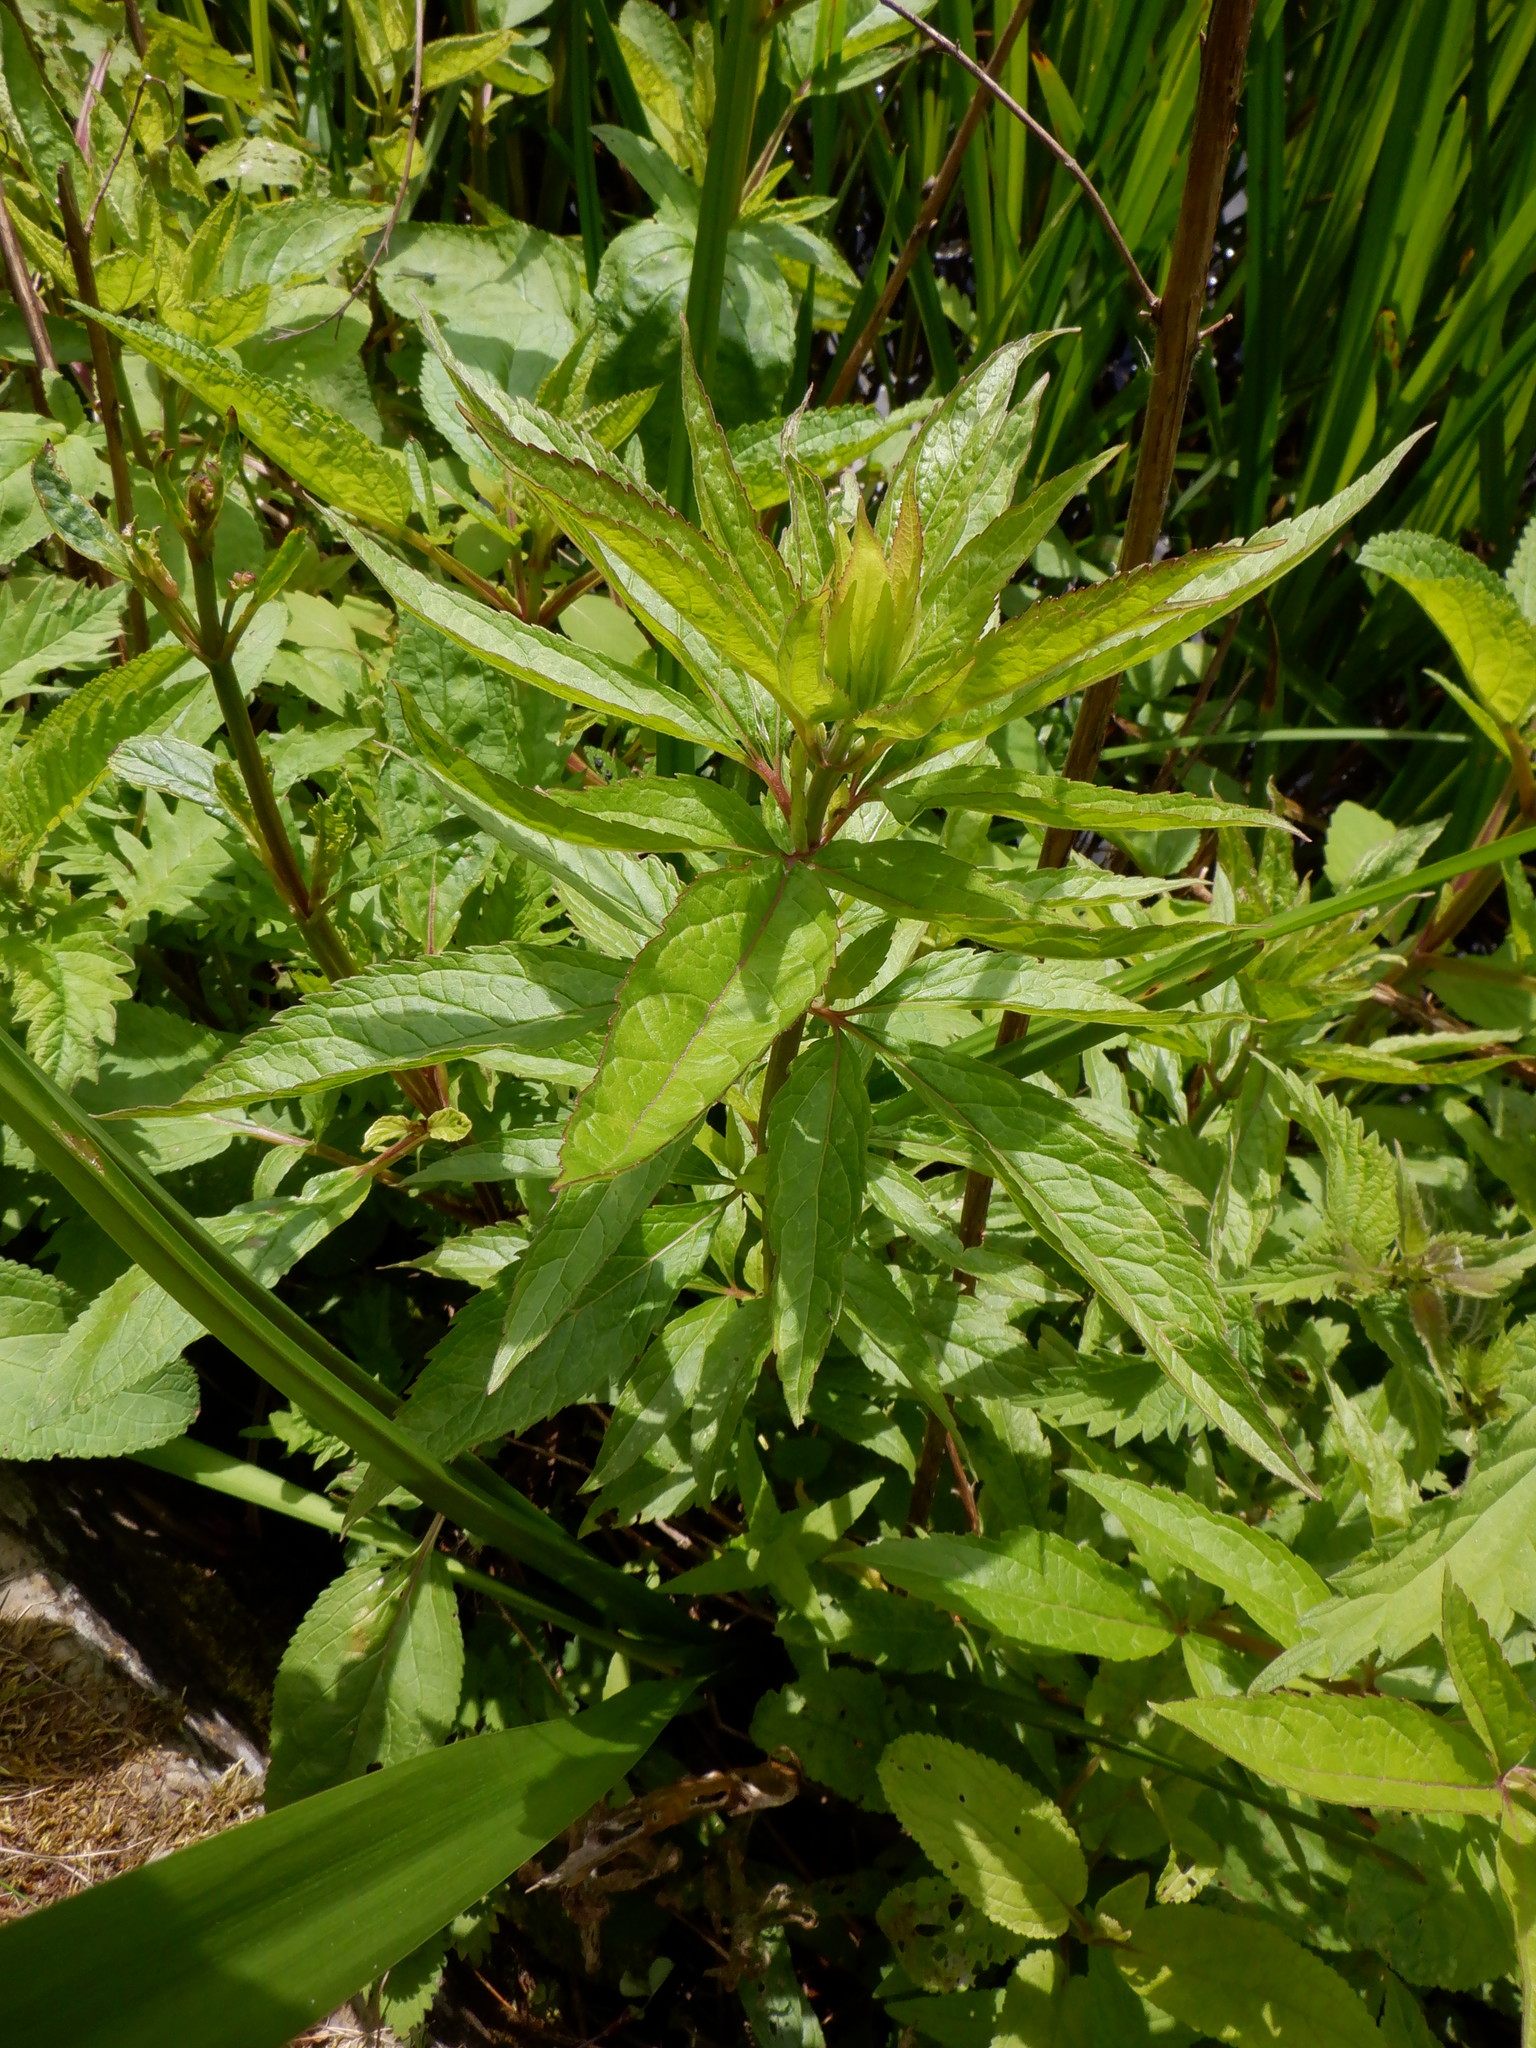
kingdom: Plantae
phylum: Tracheophyta
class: Magnoliopsida
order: Asterales
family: Asteraceae
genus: Eupatorium
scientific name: Eupatorium cannabinum
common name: Hemp-agrimony
